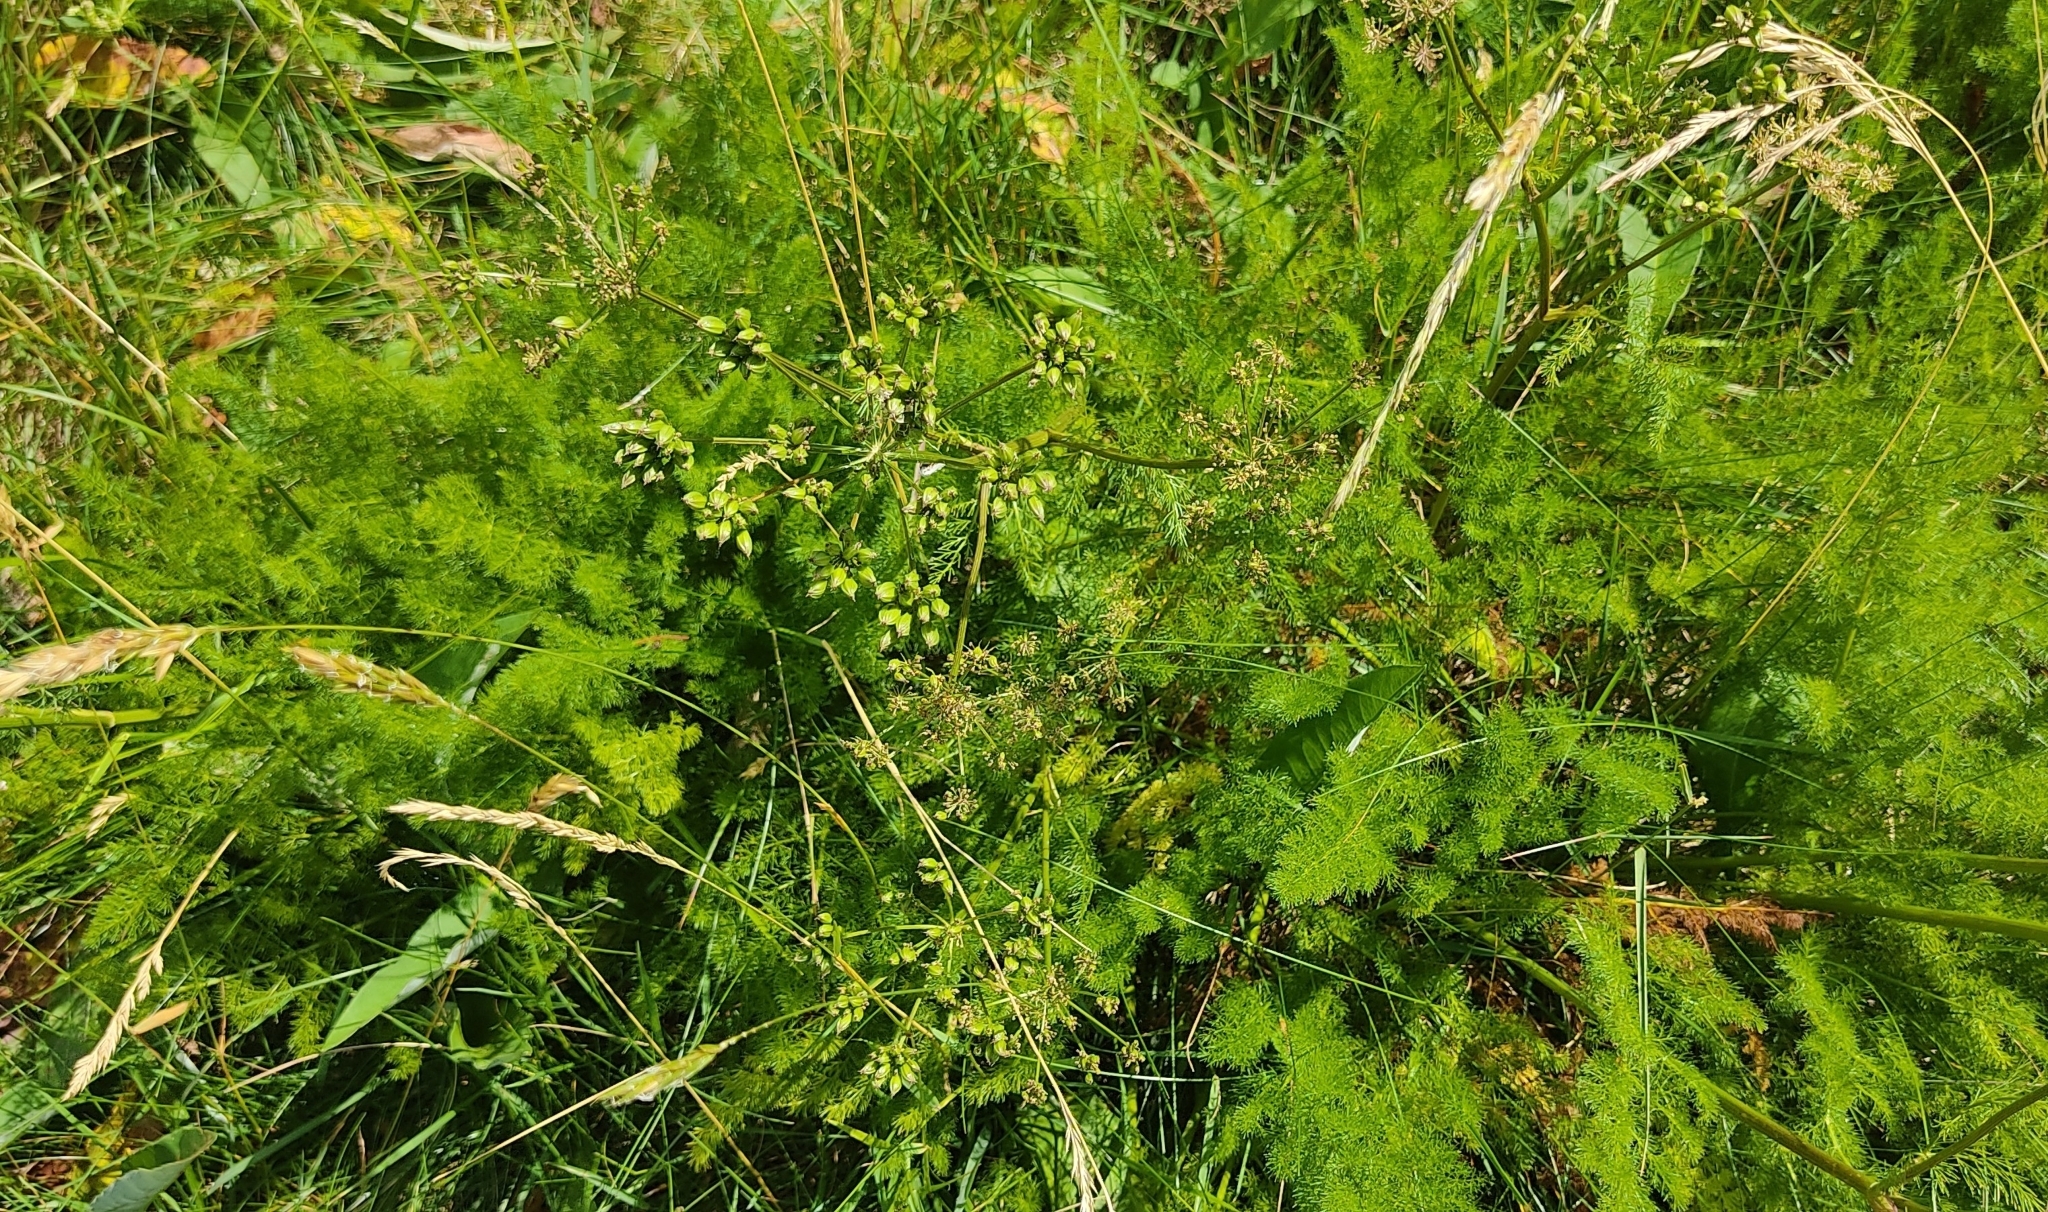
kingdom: Plantae
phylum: Tracheophyta
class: Magnoliopsida
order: Apiales
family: Apiaceae
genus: Meum
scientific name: Meum athamanticum
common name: Spignel
